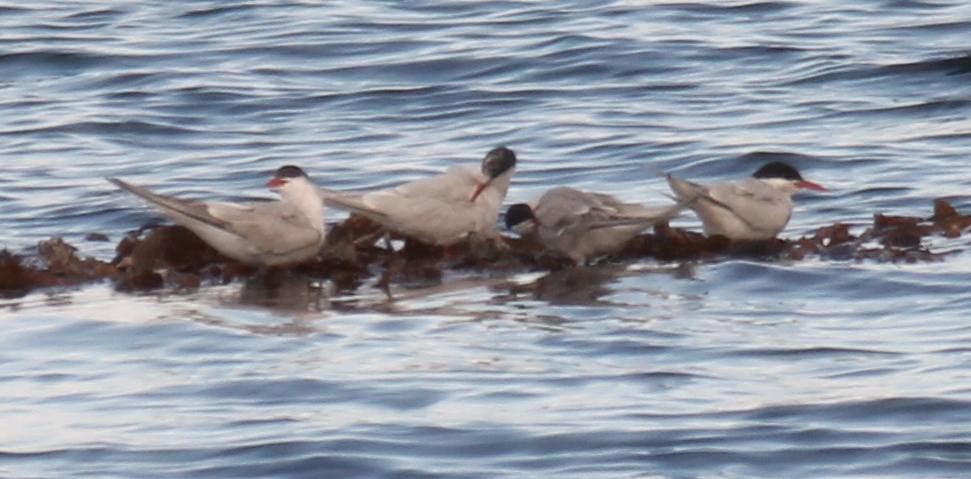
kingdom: Animalia
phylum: Chordata
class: Aves
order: Charadriiformes
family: Laridae
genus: Sterna
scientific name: Sterna hirundinacea
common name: South american tern
